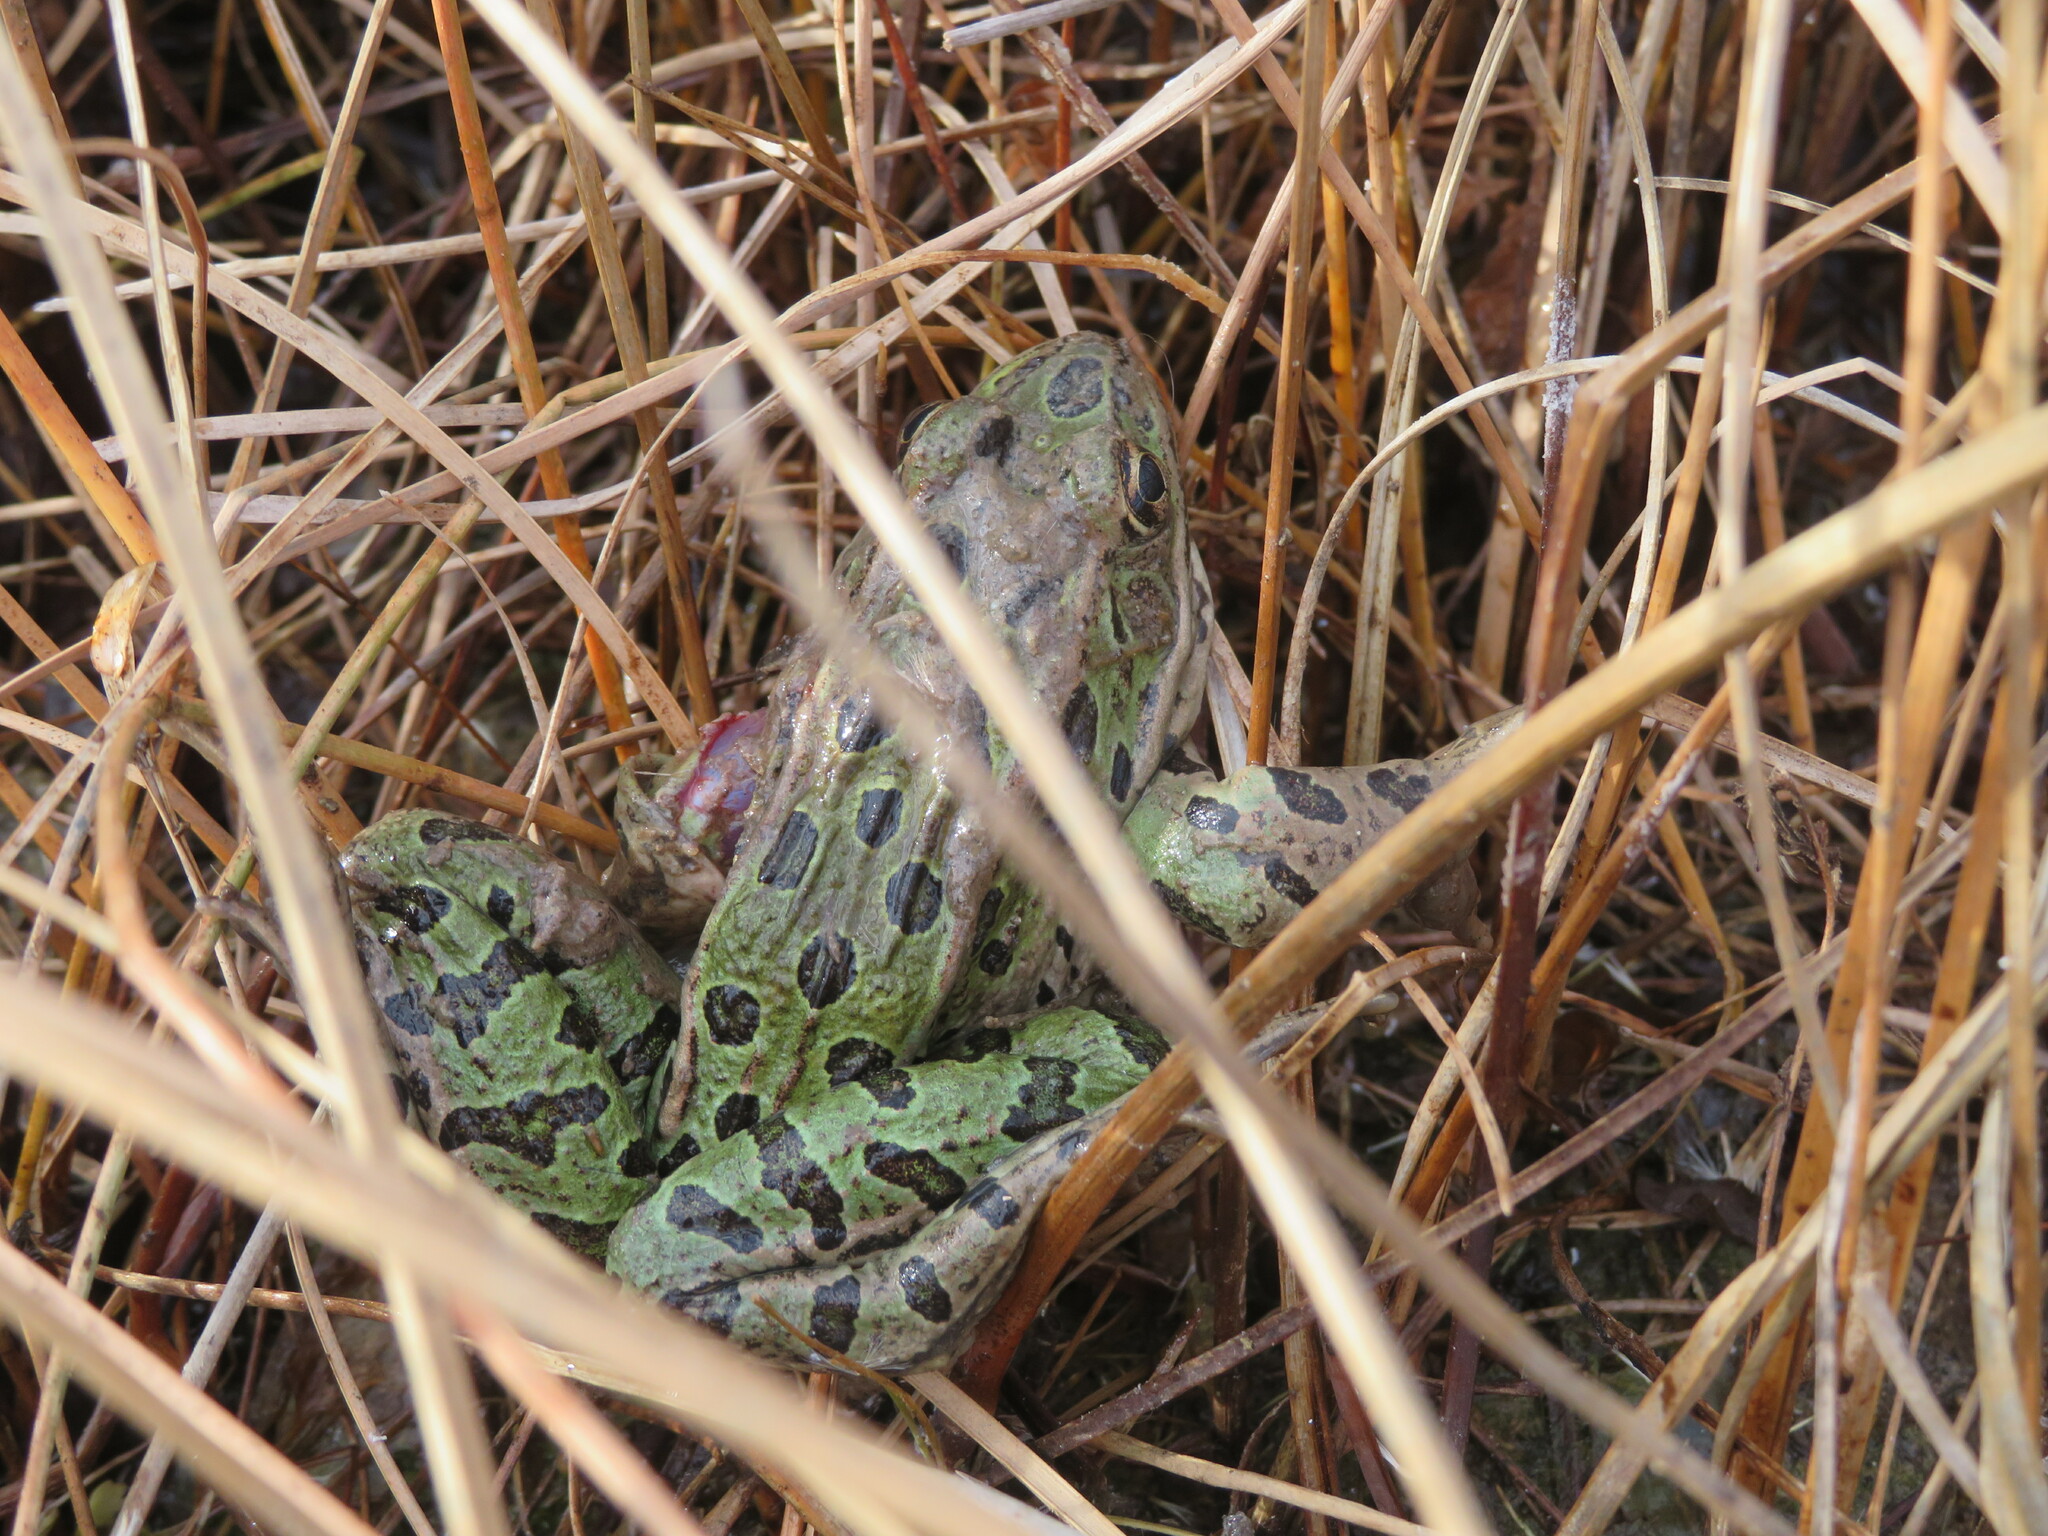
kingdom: Animalia
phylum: Chordata
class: Amphibia
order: Anura
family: Ranidae
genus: Lithobates
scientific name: Lithobates pipiens
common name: Northern leopard frog
